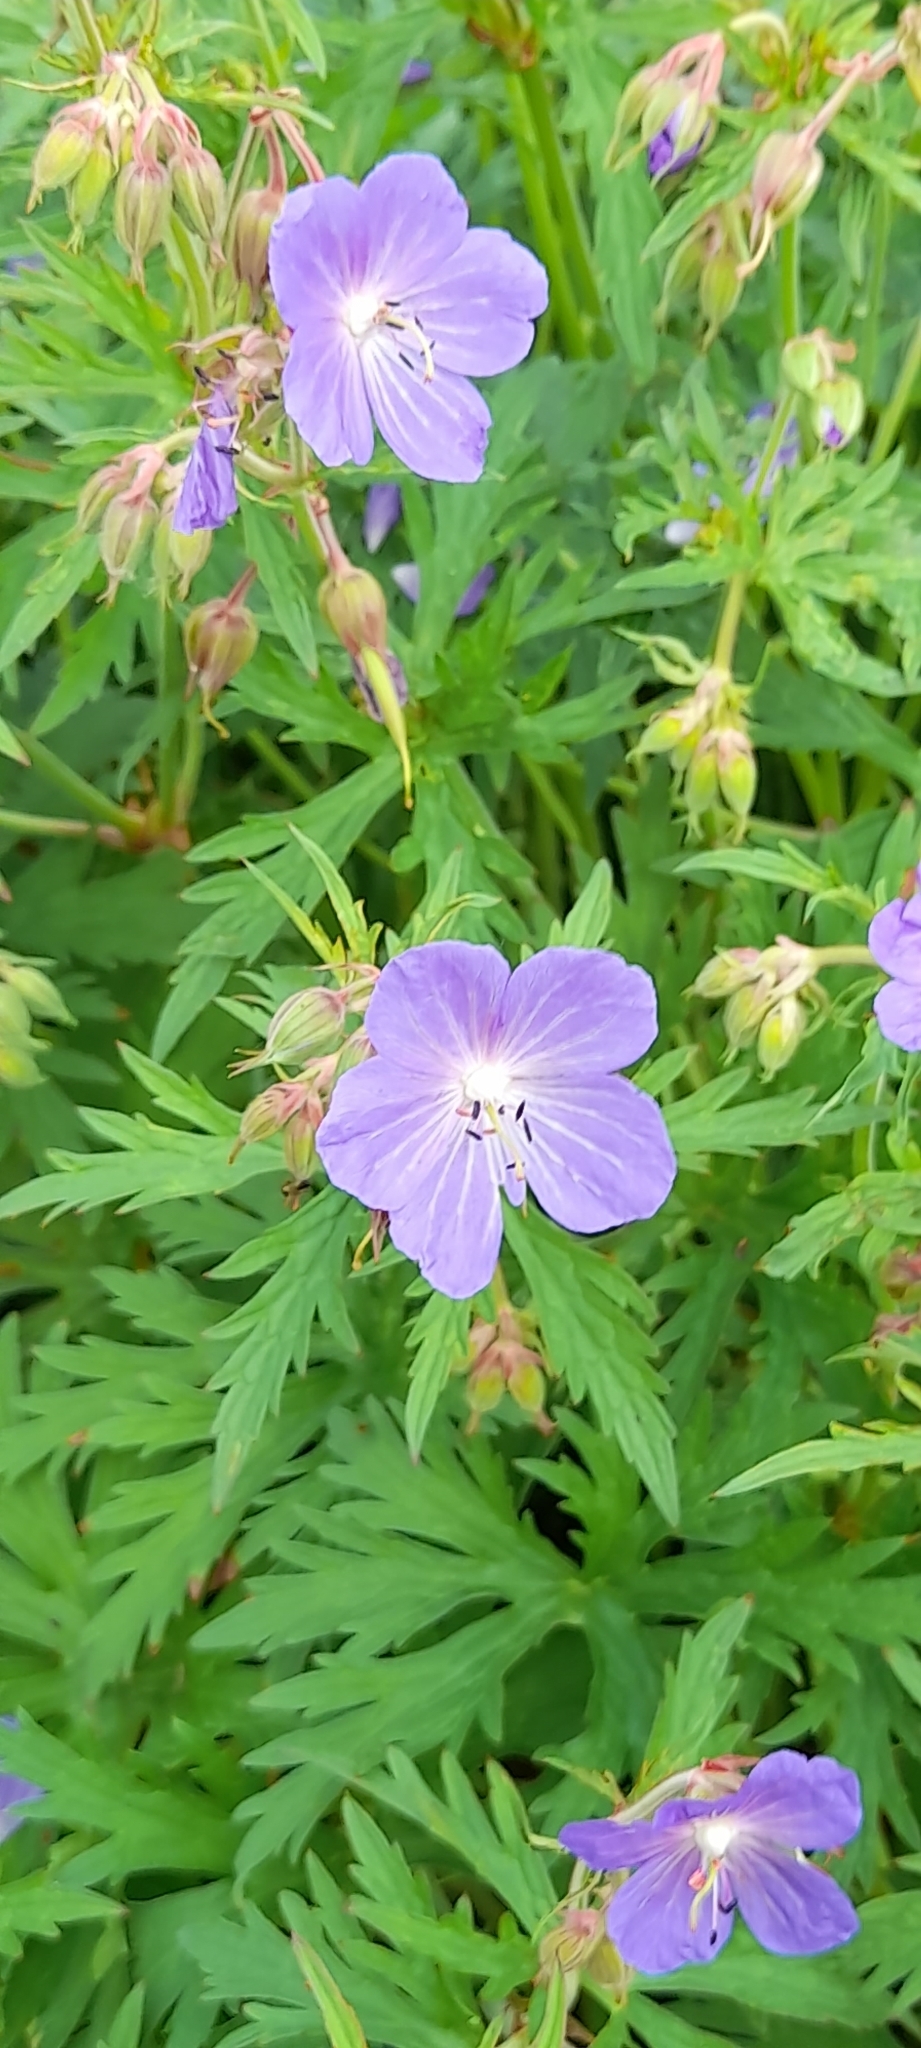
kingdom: Plantae
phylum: Tracheophyta
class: Magnoliopsida
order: Geraniales
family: Geraniaceae
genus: Geranium
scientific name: Geranium pratense
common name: Meadow crane's-bill
